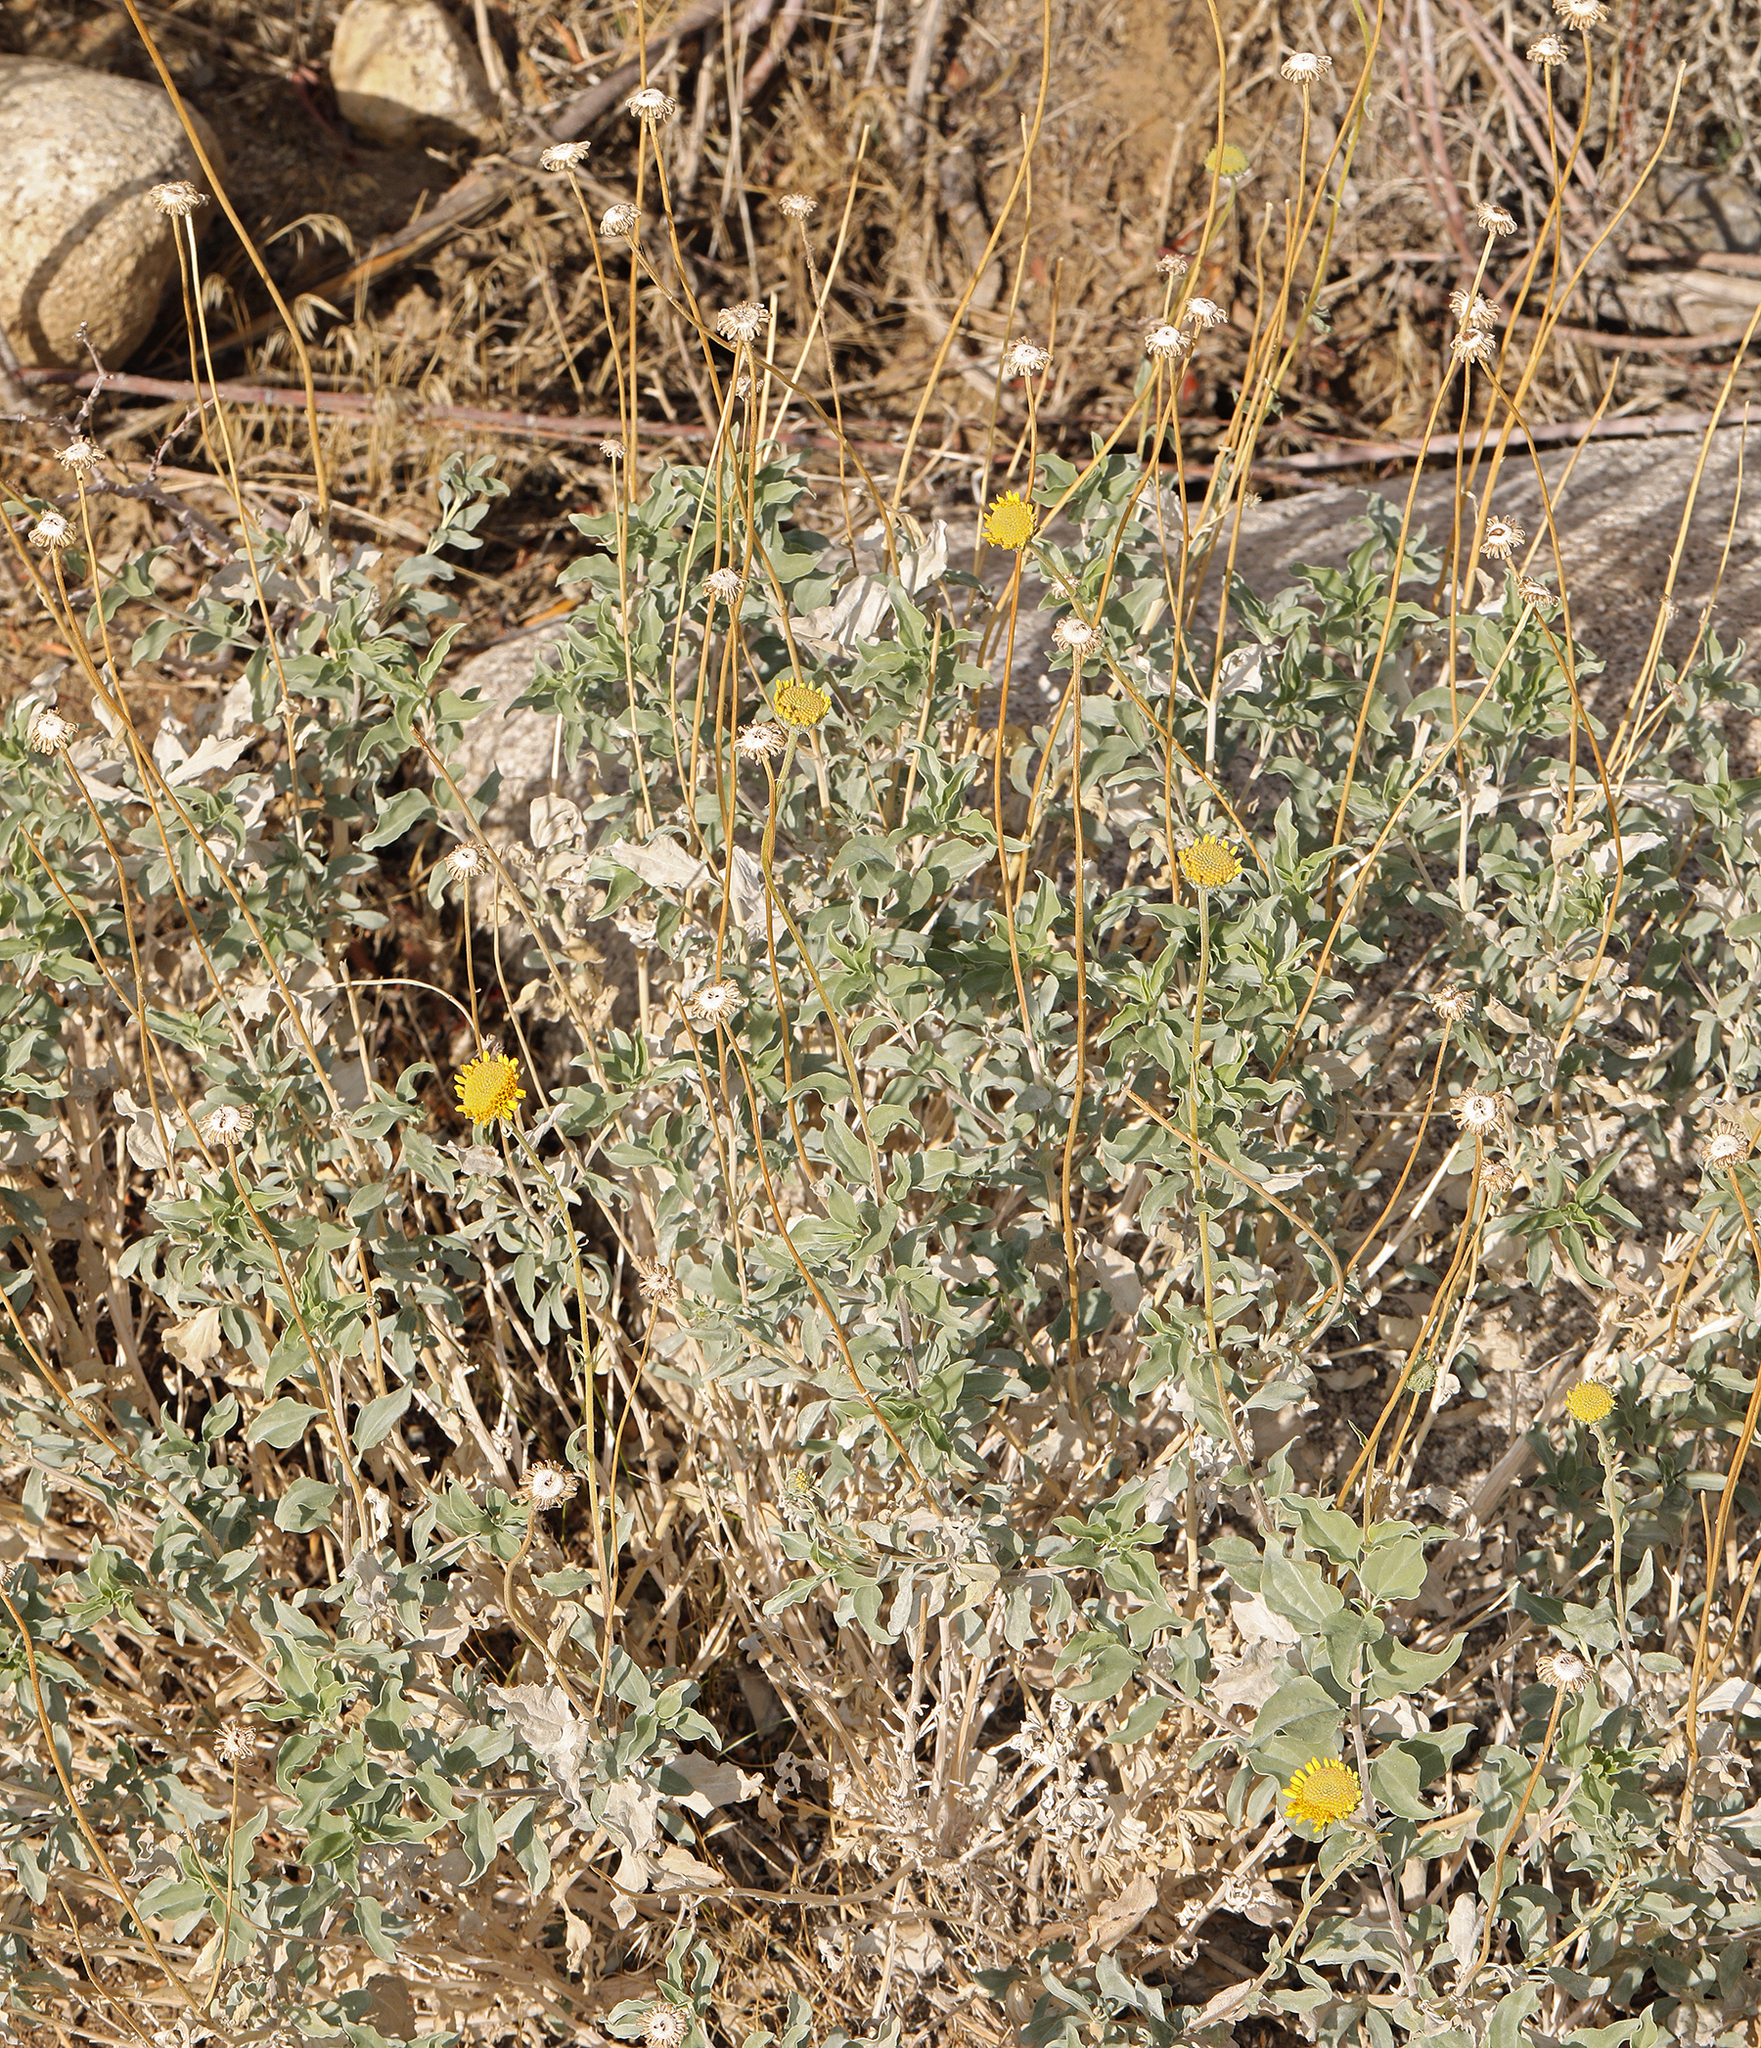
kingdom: Plantae
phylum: Tracheophyta
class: Magnoliopsida
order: Asterales
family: Asteraceae
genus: Encelia
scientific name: Encelia actoni
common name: Acton encelia
